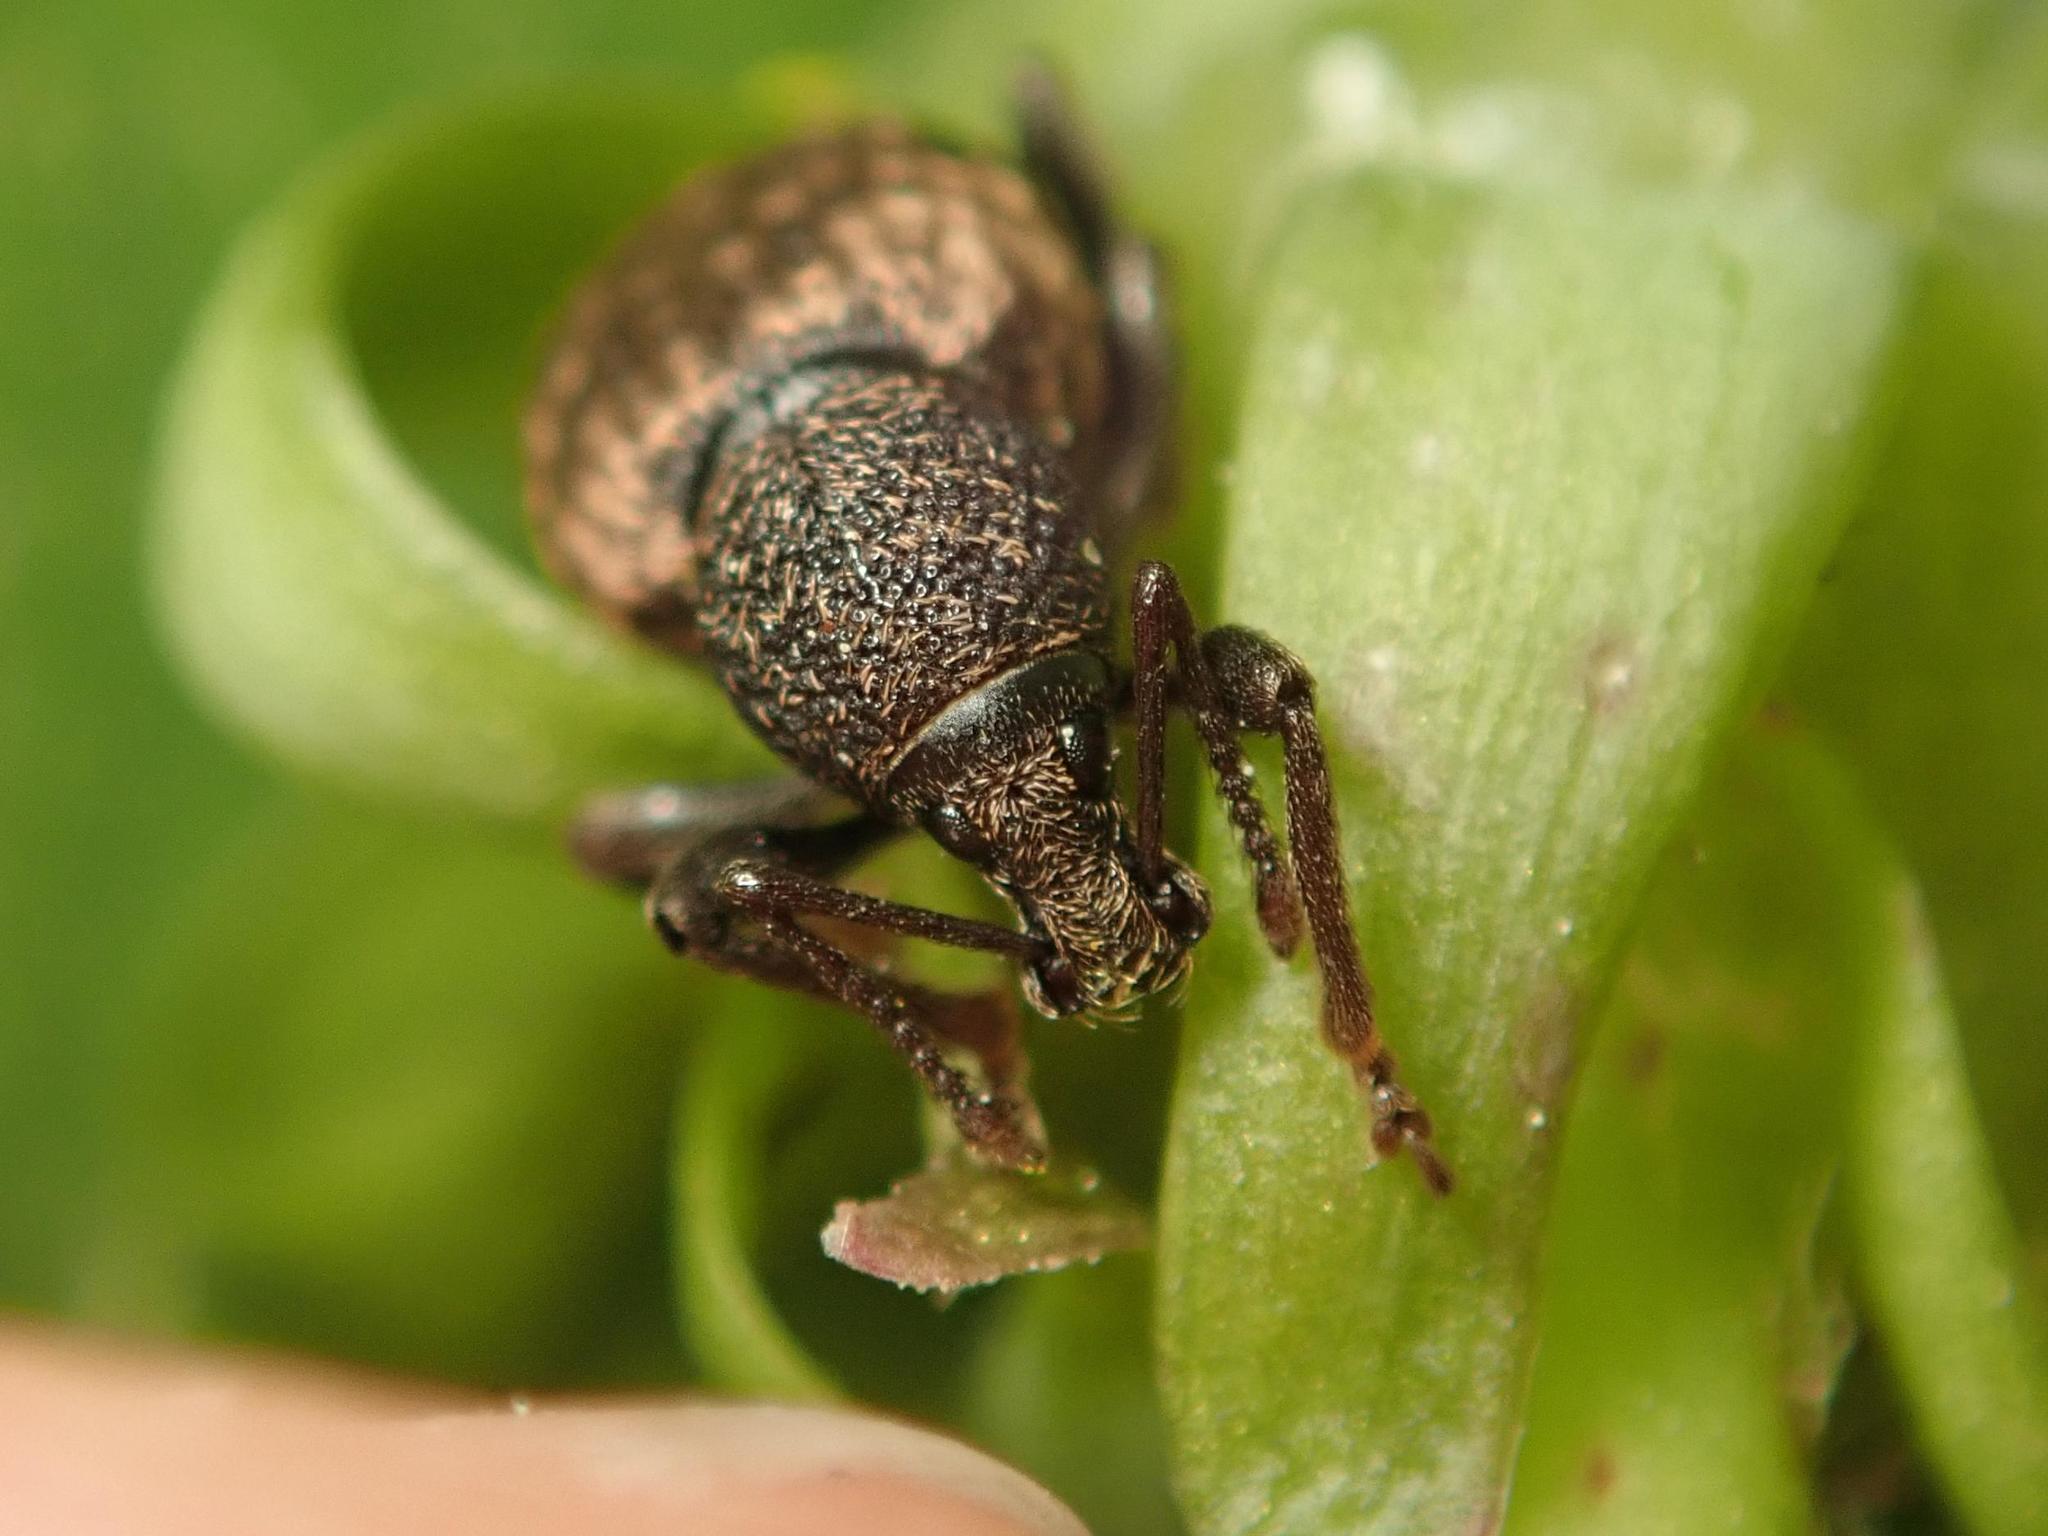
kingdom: Animalia
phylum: Arthropoda
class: Insecta
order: Coleoptera
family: Curculionidae
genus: Otiorhynchus
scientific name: Otiorhynchus raucus
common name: Weevil
